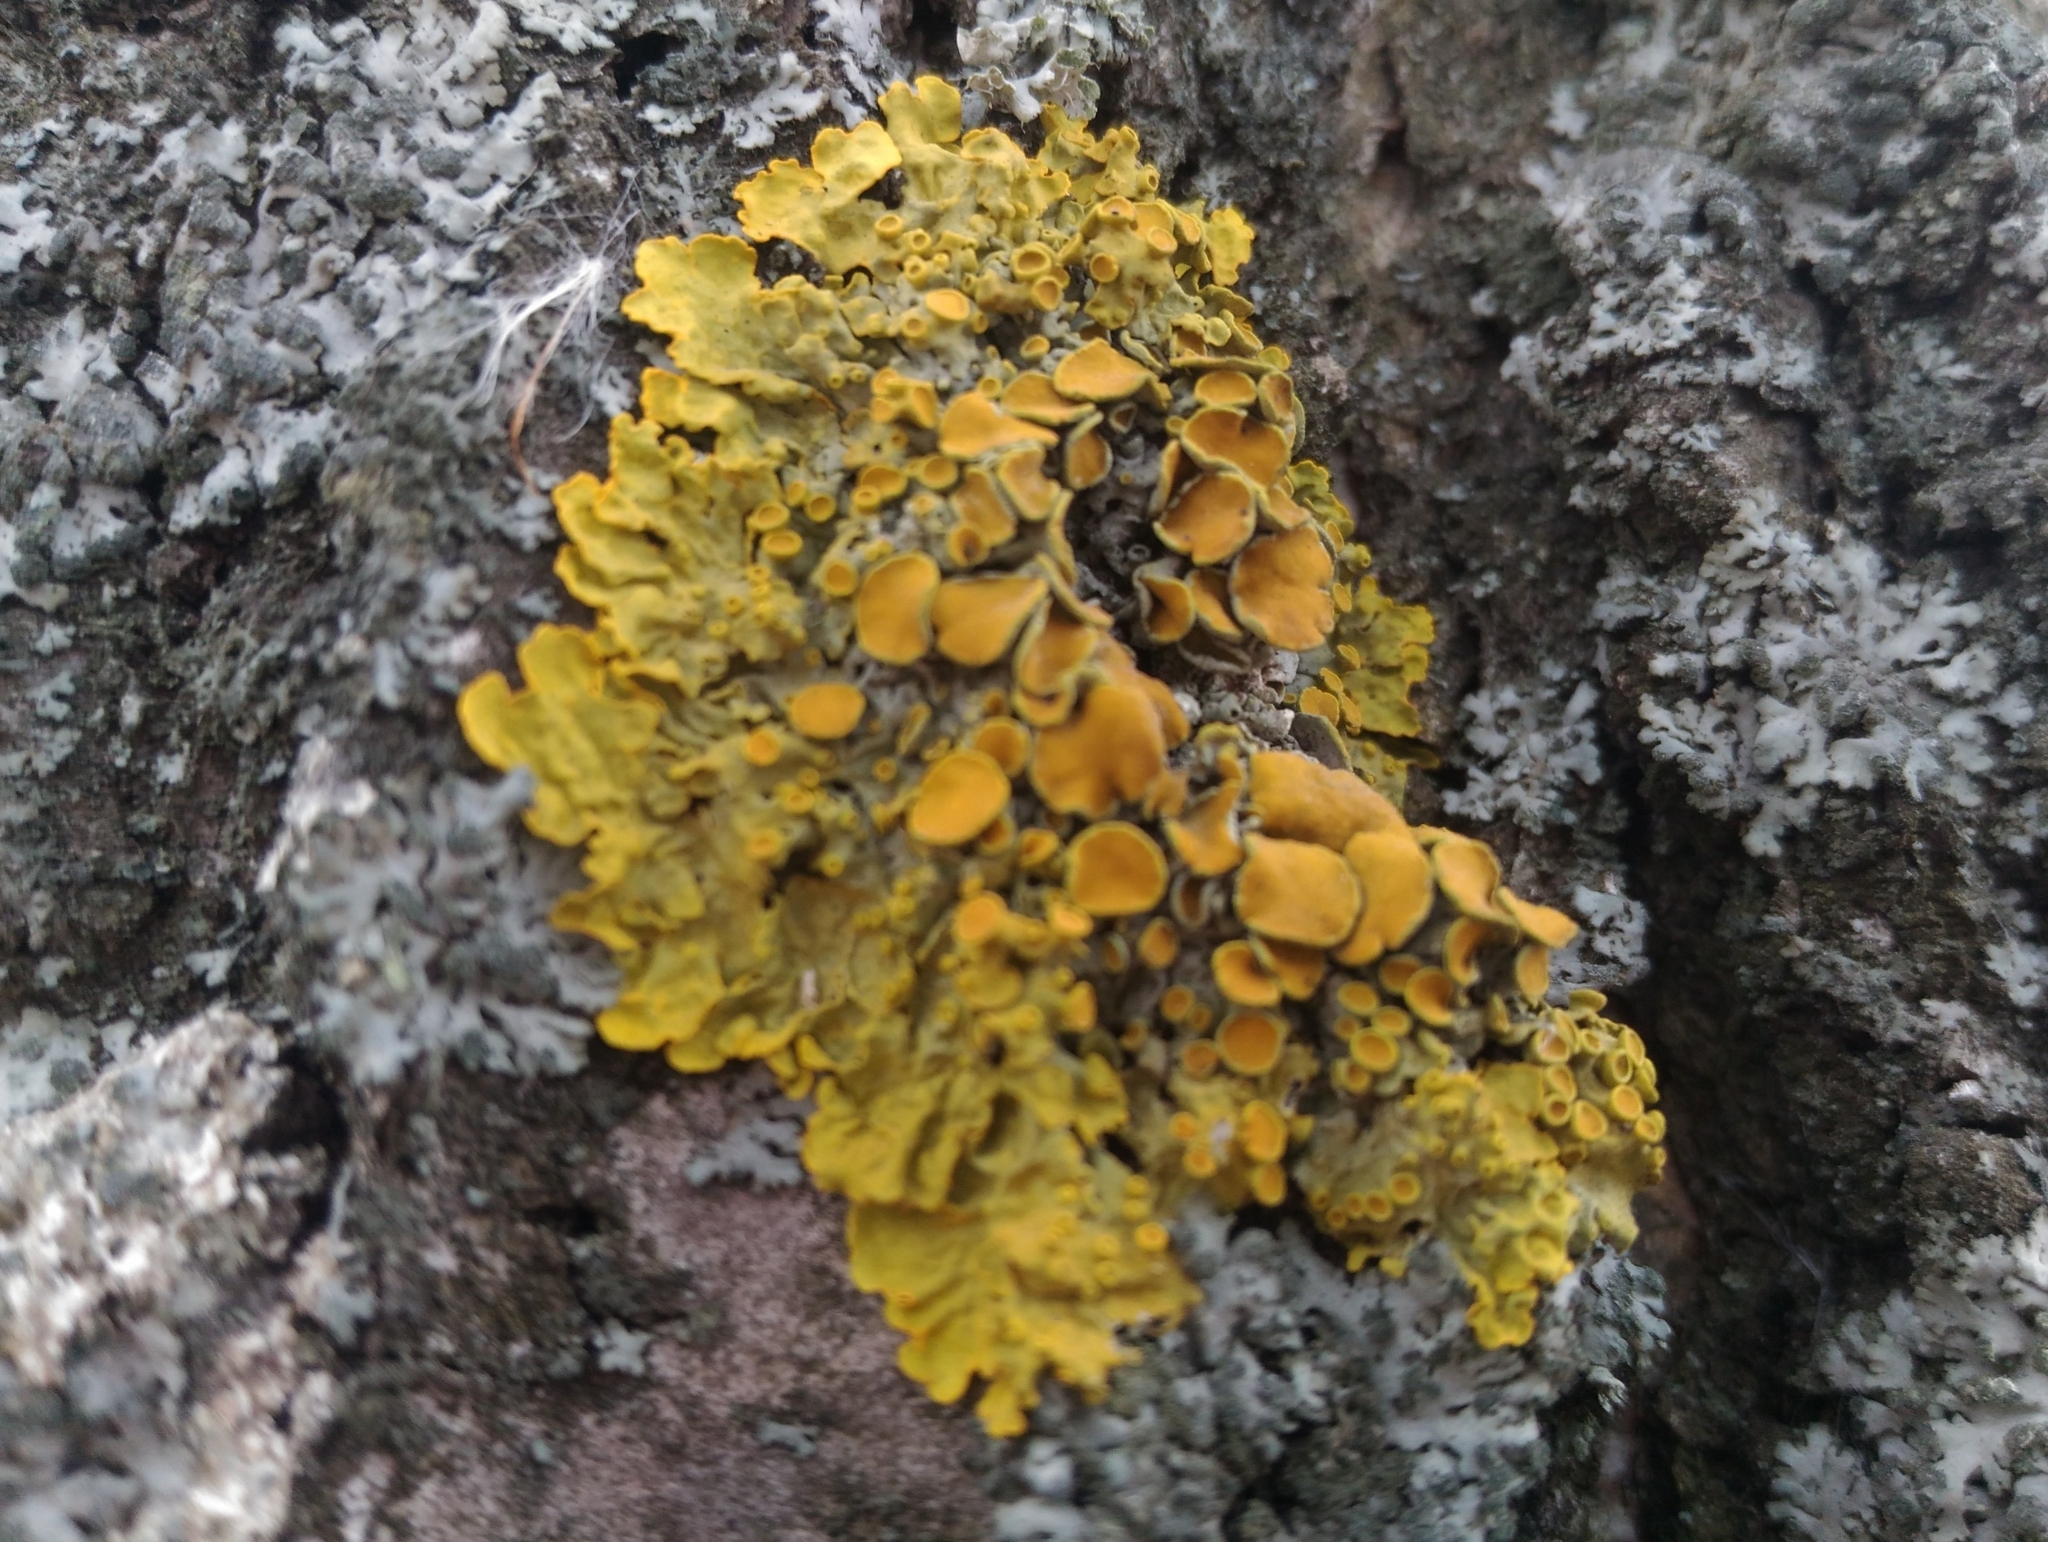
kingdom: Fungi
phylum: Ascomycota
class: Lecanoromycetes
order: Teloschistales
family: Teloschistaceae
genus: Xanthoria
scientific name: Xanthoria parietina
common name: Common orange lichen
